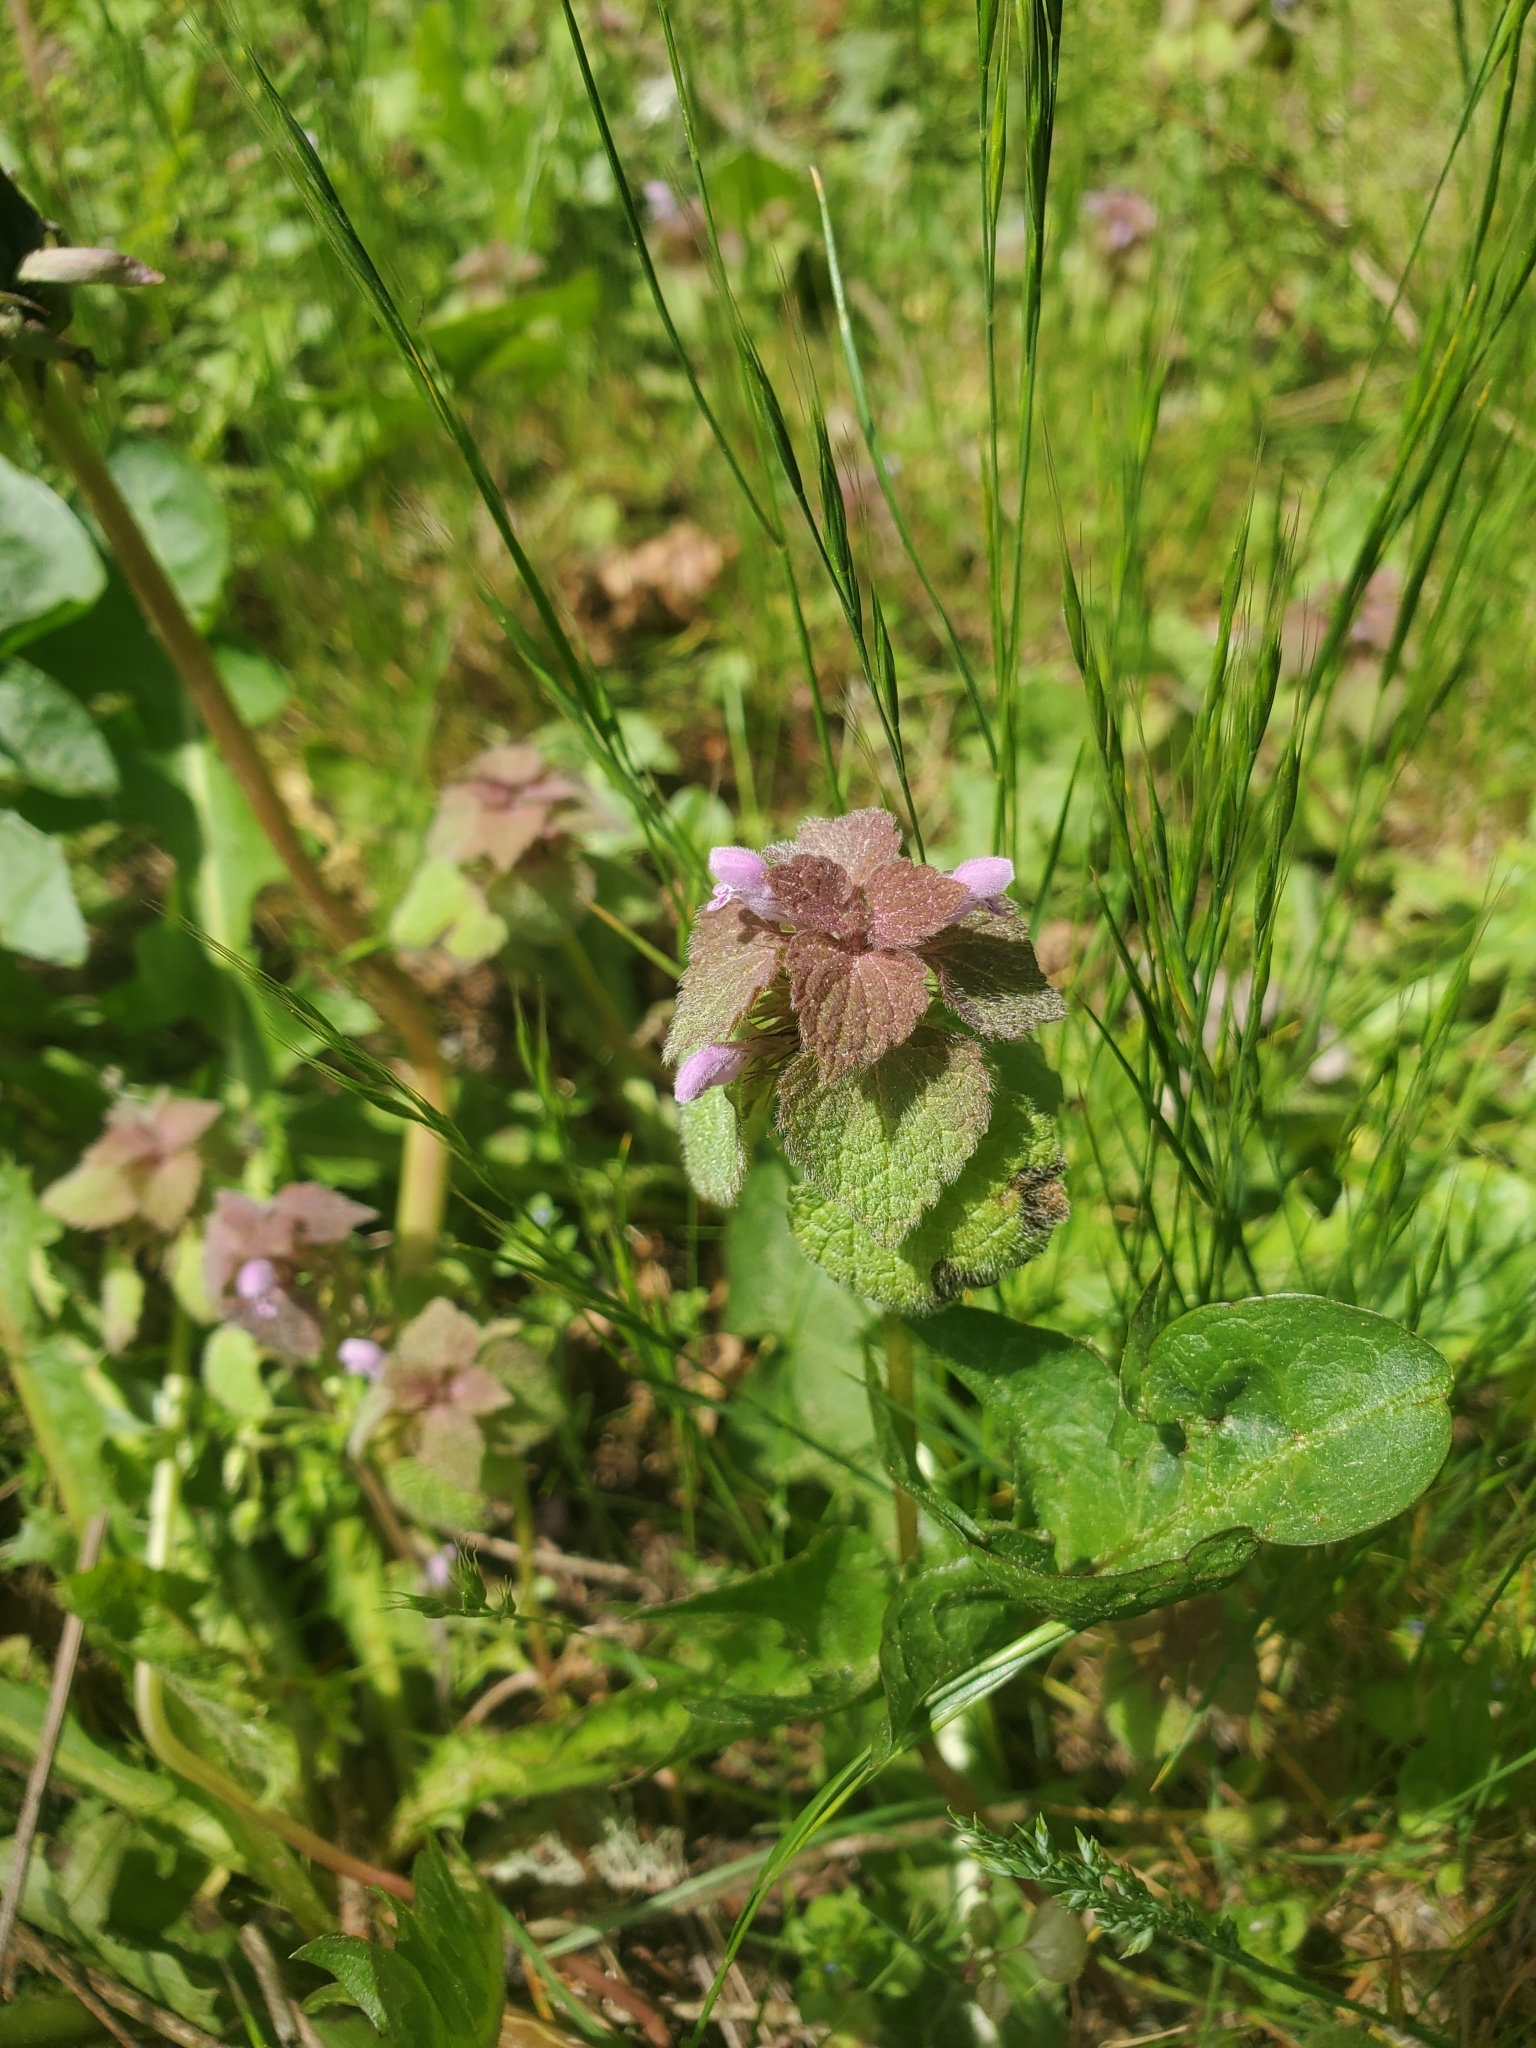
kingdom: Plantae
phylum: Tracheophyta
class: Magnoliopsida
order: Lamiales
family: Lamiaceae
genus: Lamium
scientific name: Lamium purpureum
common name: Red dead-nettle
